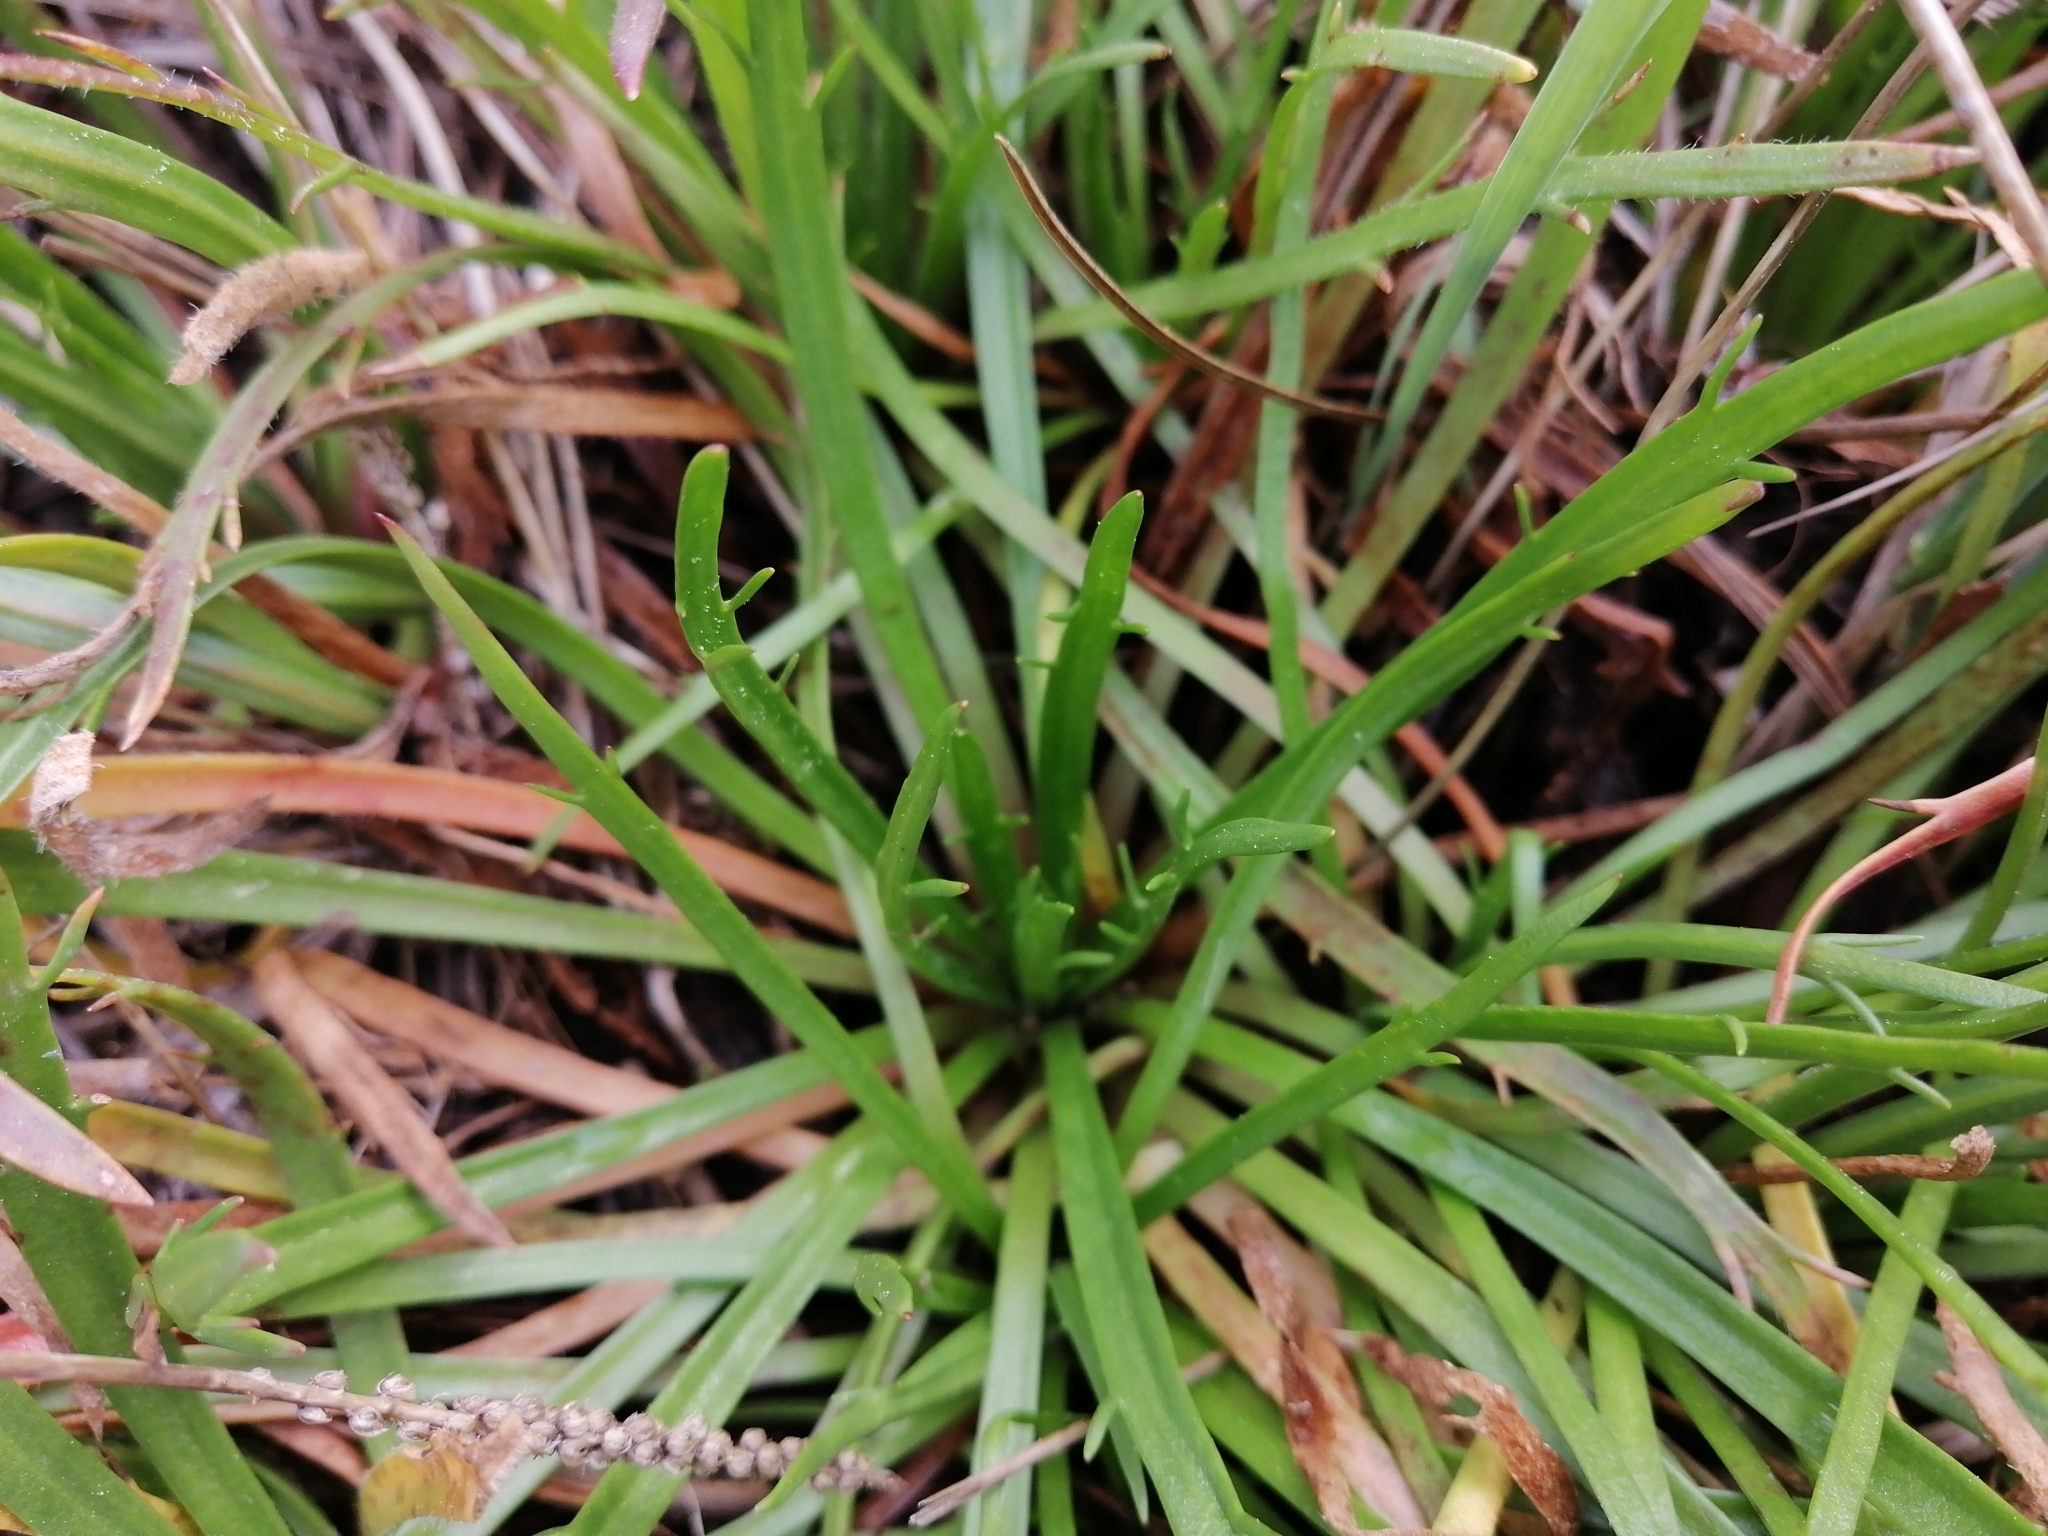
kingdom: Plantae
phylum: Tracheophyta
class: Magnoliopsida
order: Lamiales
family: Plantaginaceae
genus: Plantago
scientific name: Plantago coronopus
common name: Buck's-horn plantain
